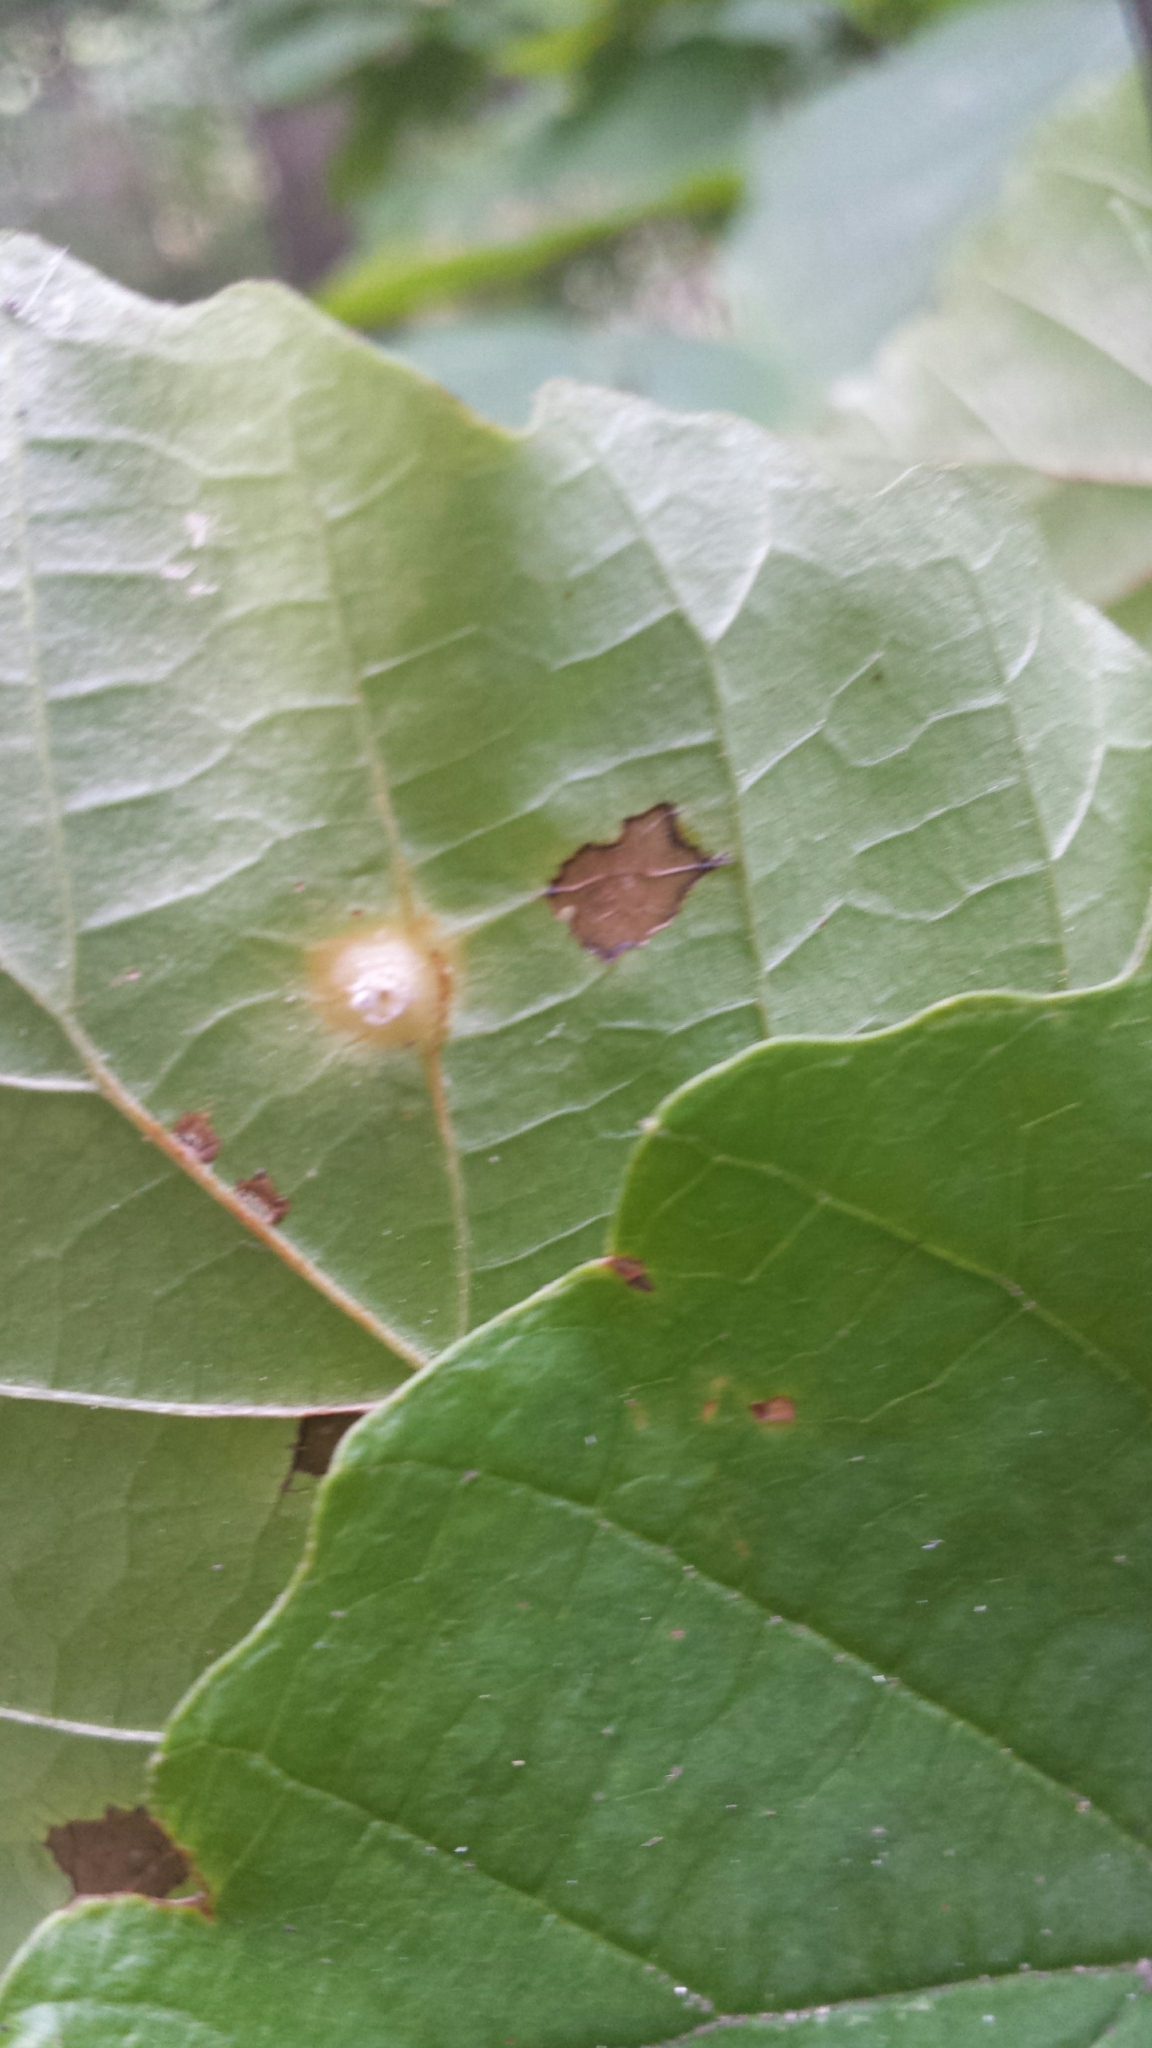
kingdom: Animalia
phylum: Arthropoda
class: Insecta
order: Hemiptera
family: Aphididae
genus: Hormaphis
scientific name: Hormaphis hamamelidis
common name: Witch-hazel cone gall aphid
